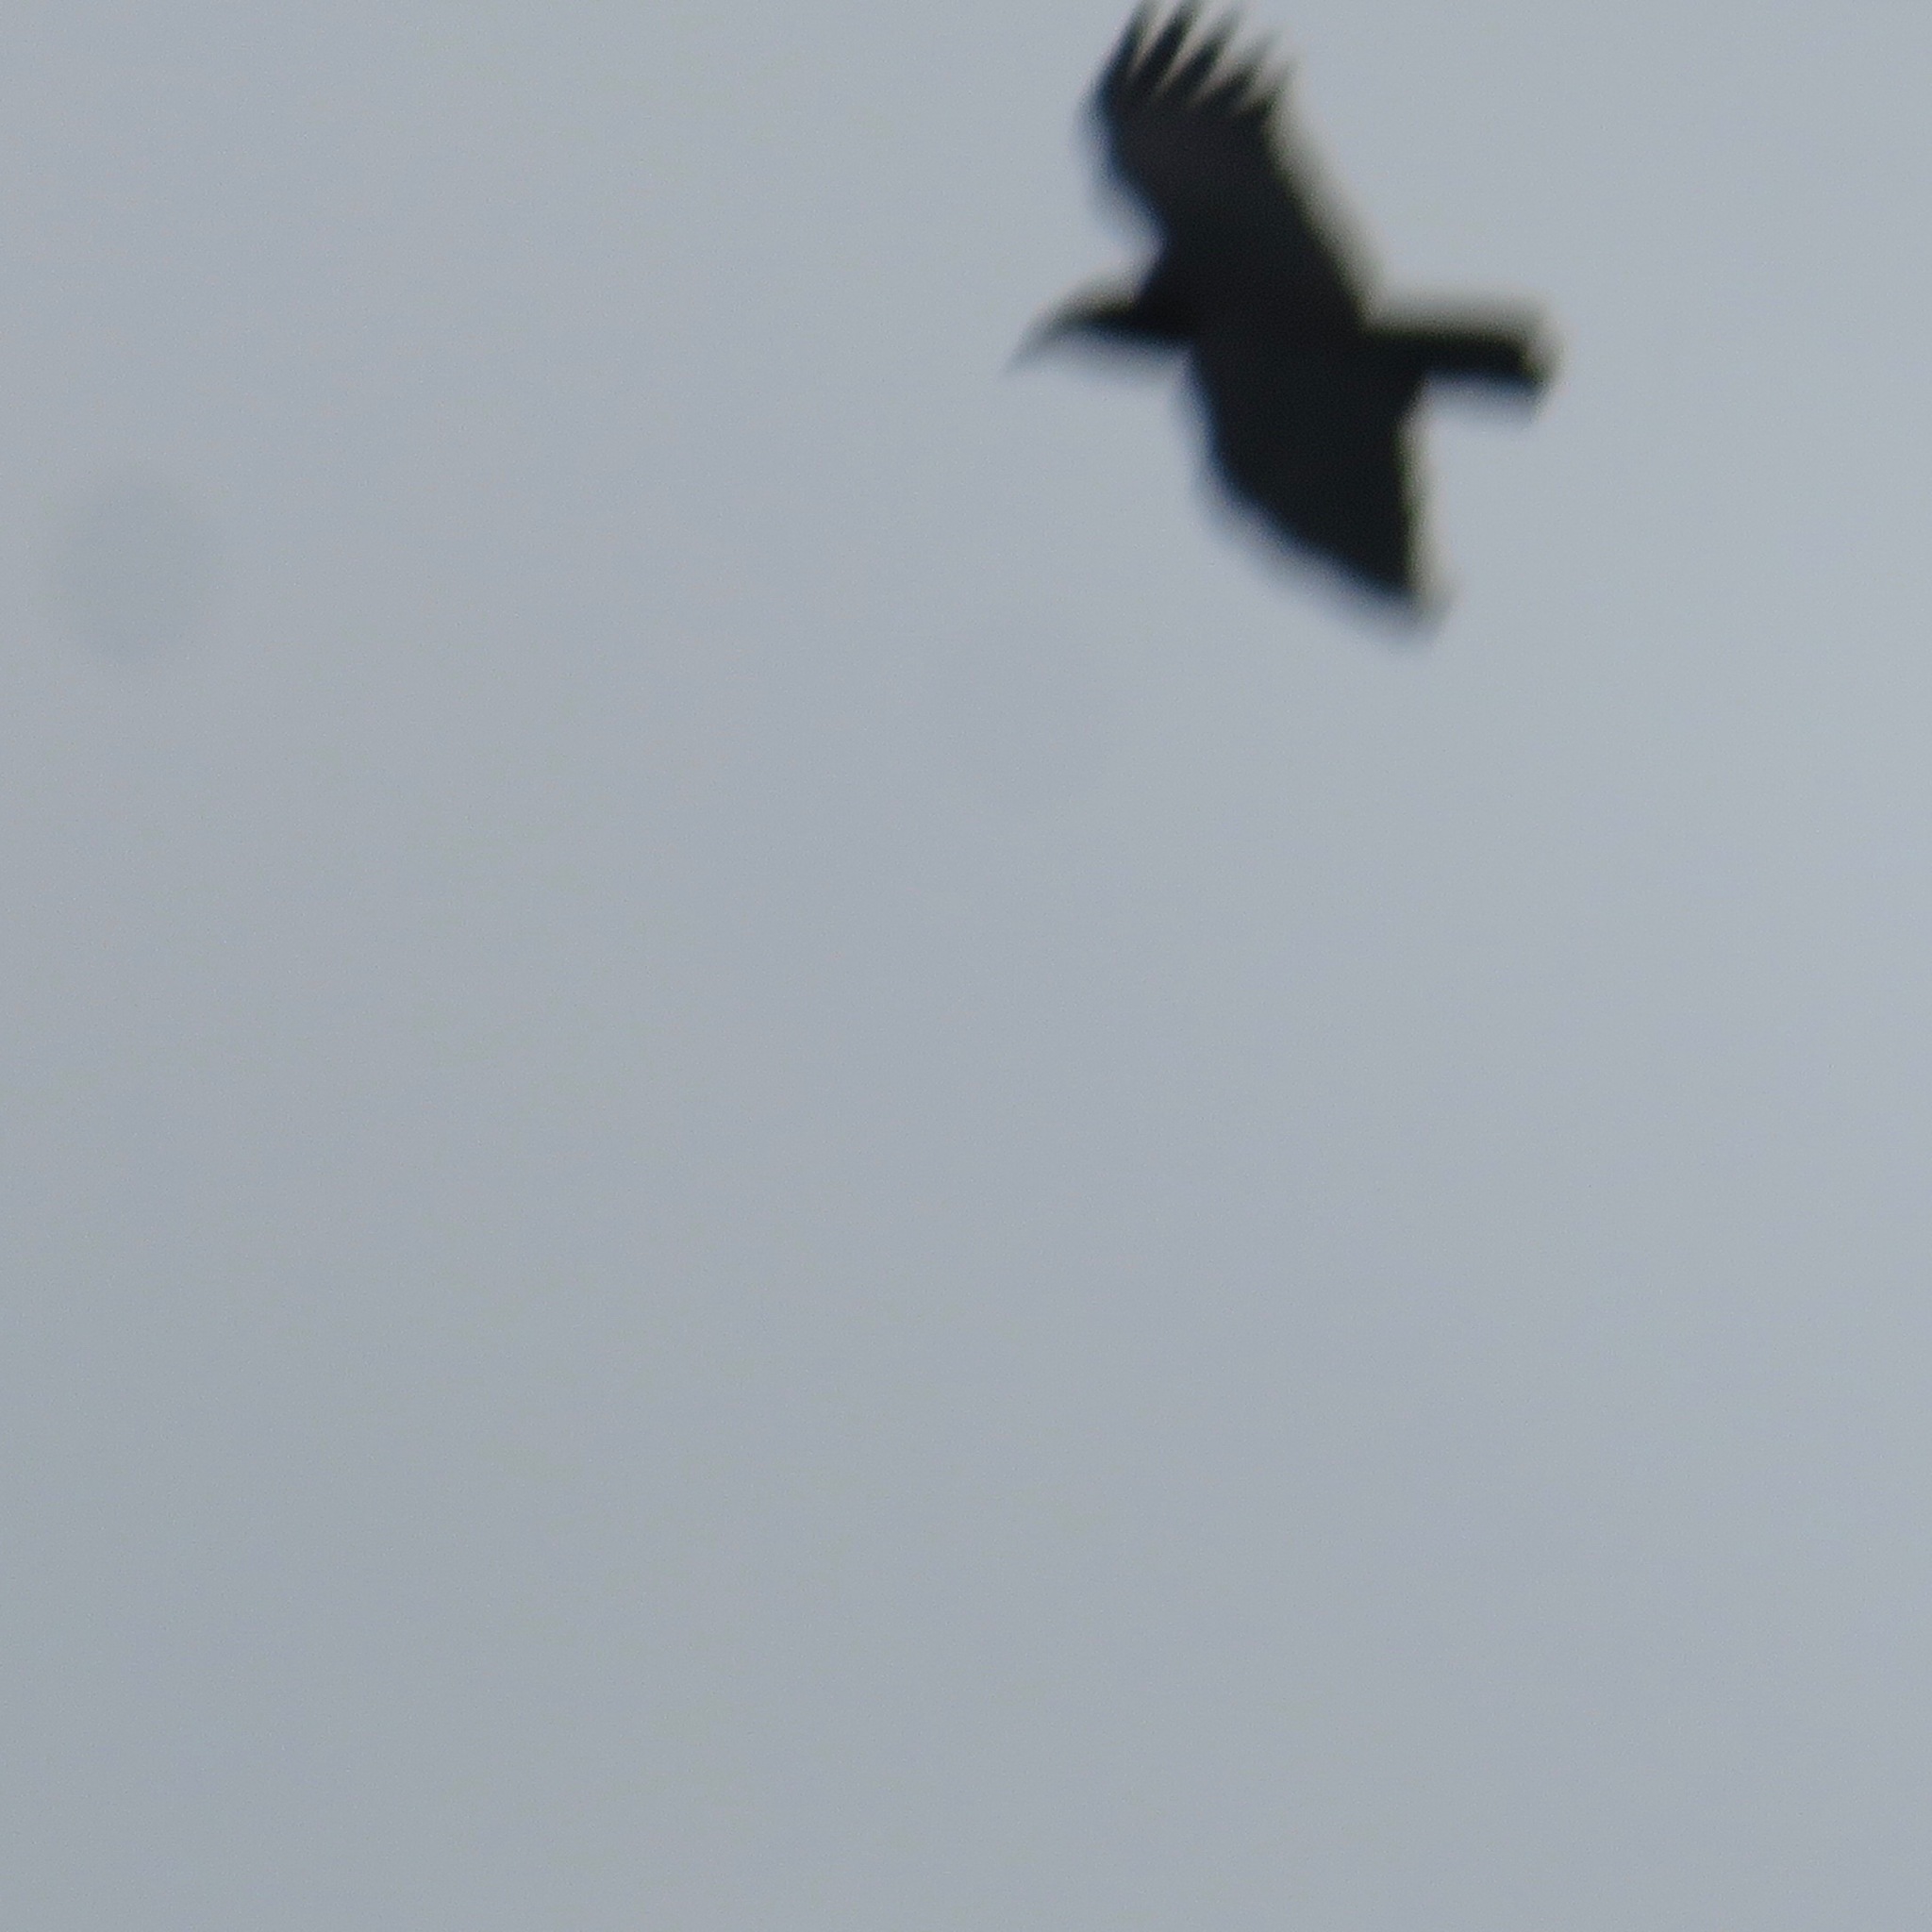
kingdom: Animalia
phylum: Chordata
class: Aves
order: Passeriformes
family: Corvidae
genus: Corvus
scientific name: Corvus brachyrhynchos
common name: American crow
